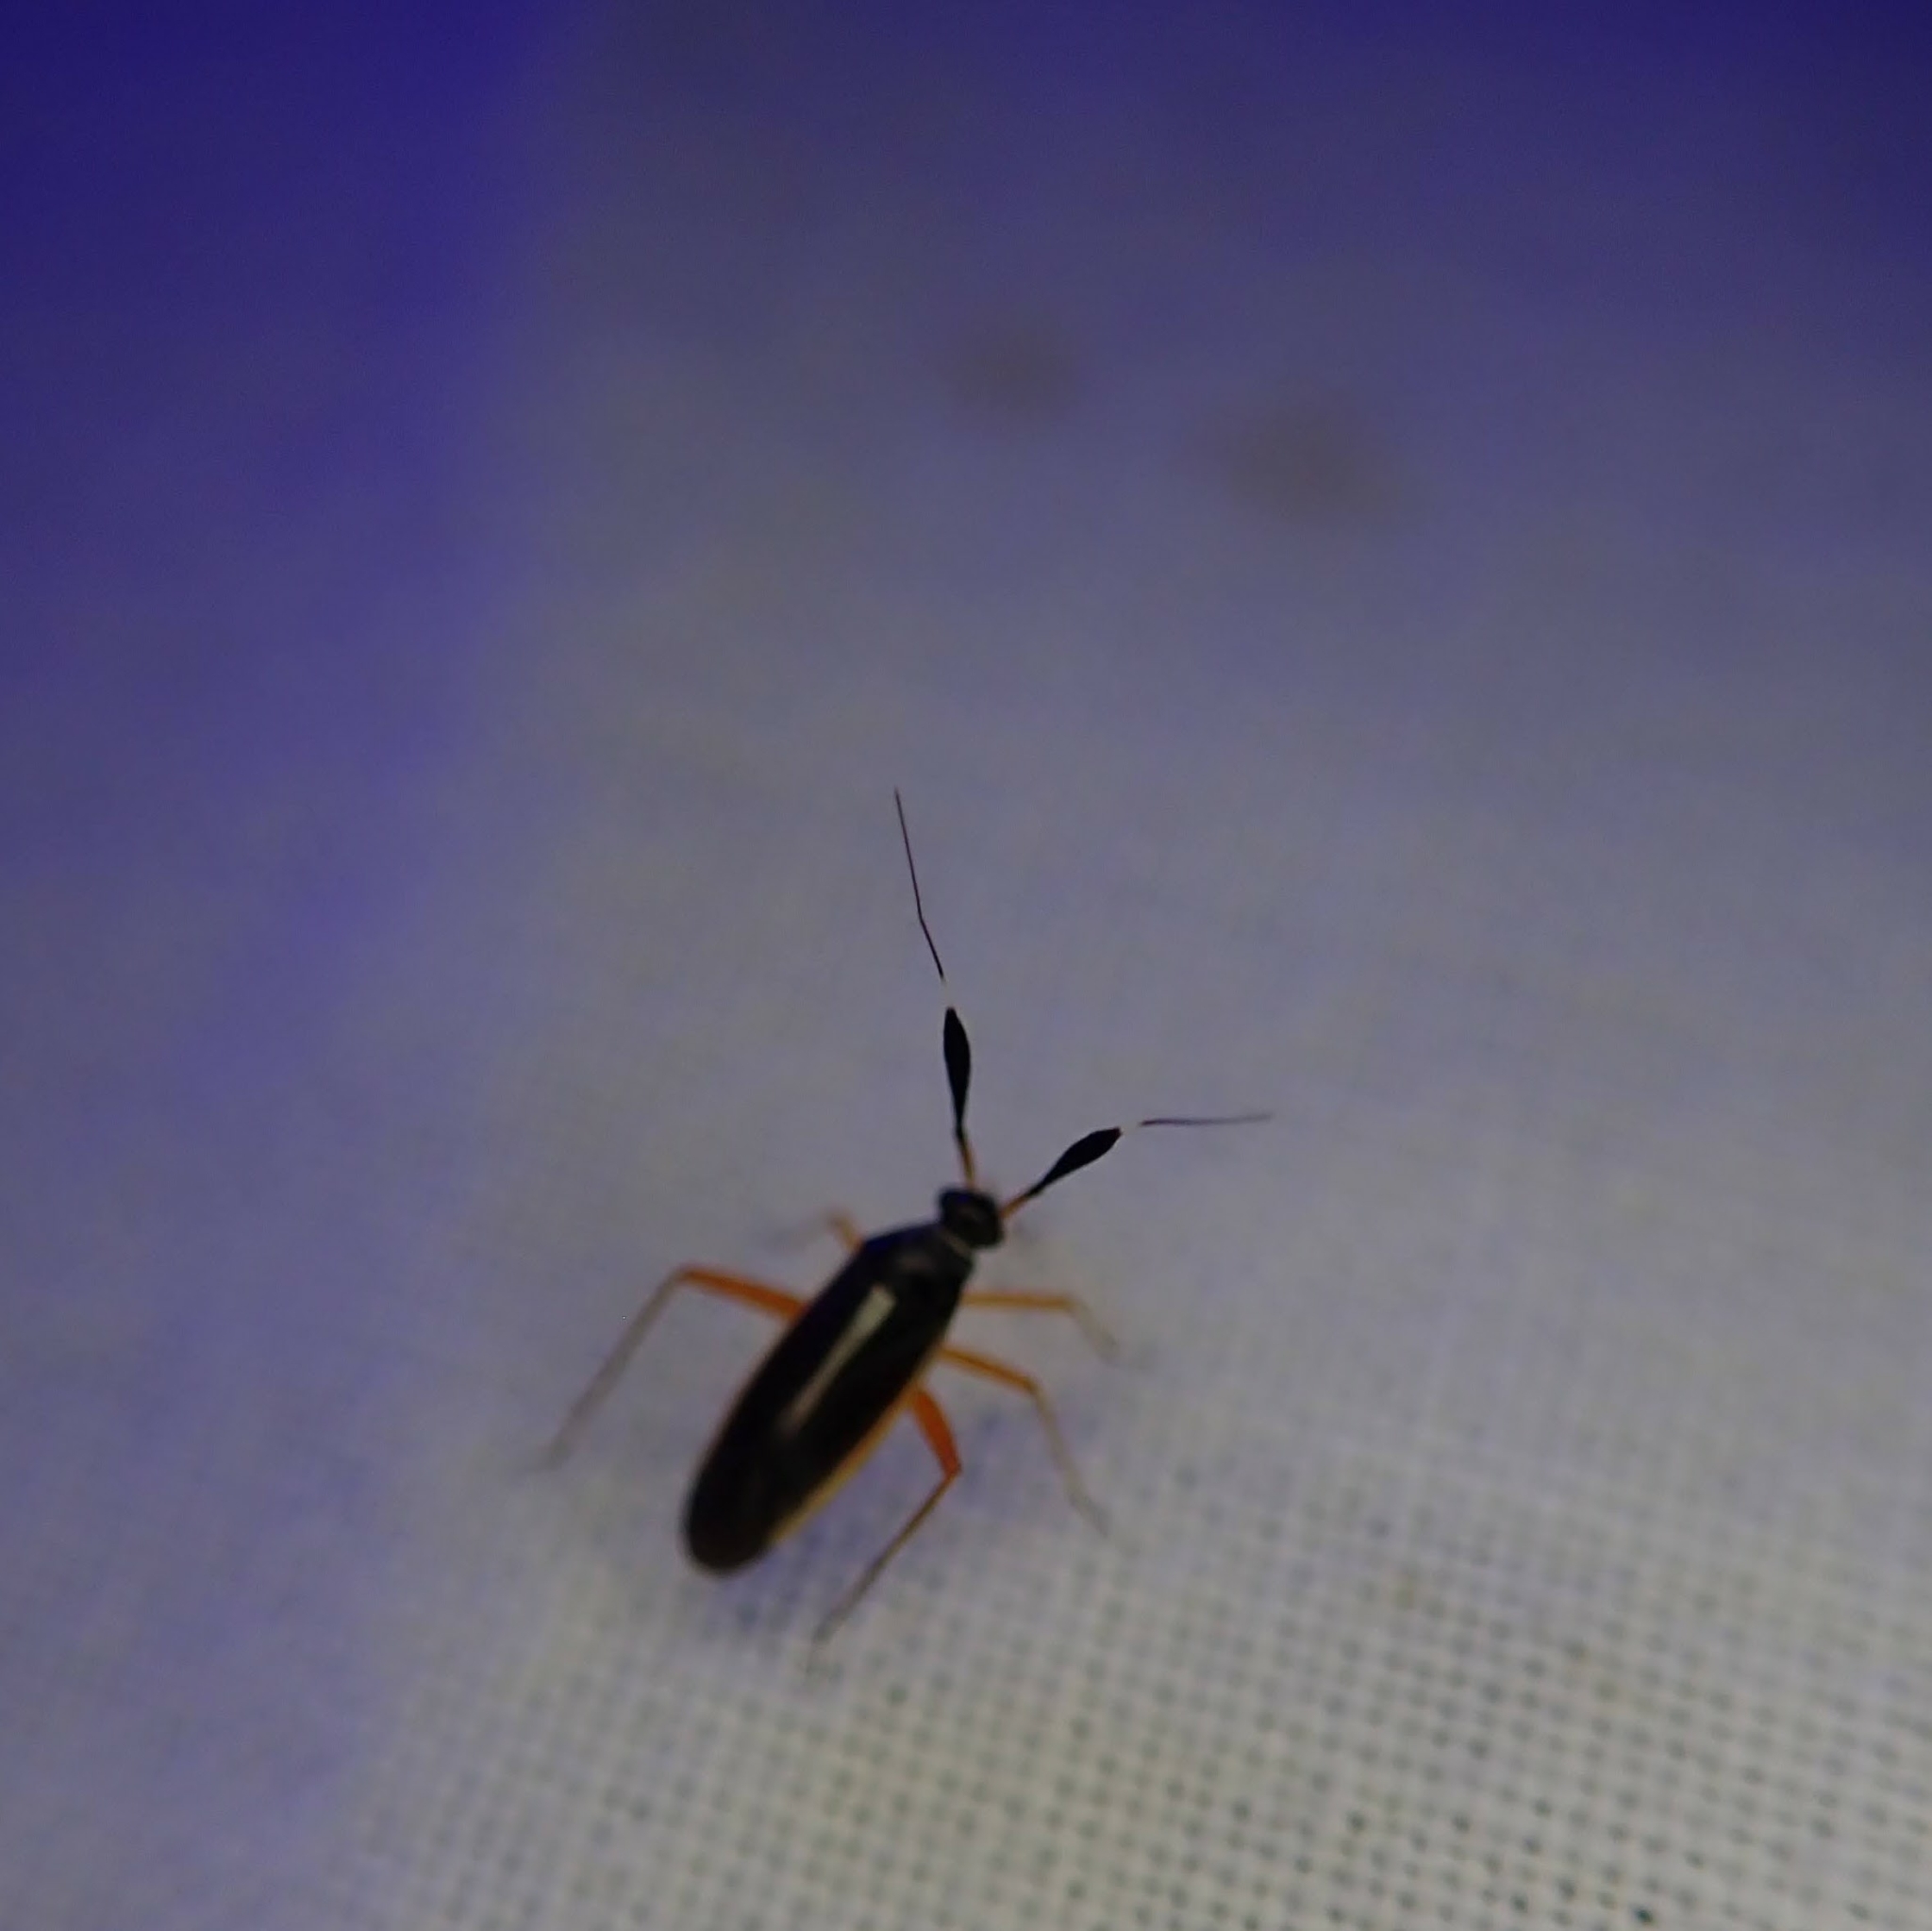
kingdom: Animalia
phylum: Arthropoda
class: Insecta
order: Hemiptera
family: Miridae
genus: Garganus
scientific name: Garganus fusiformis
